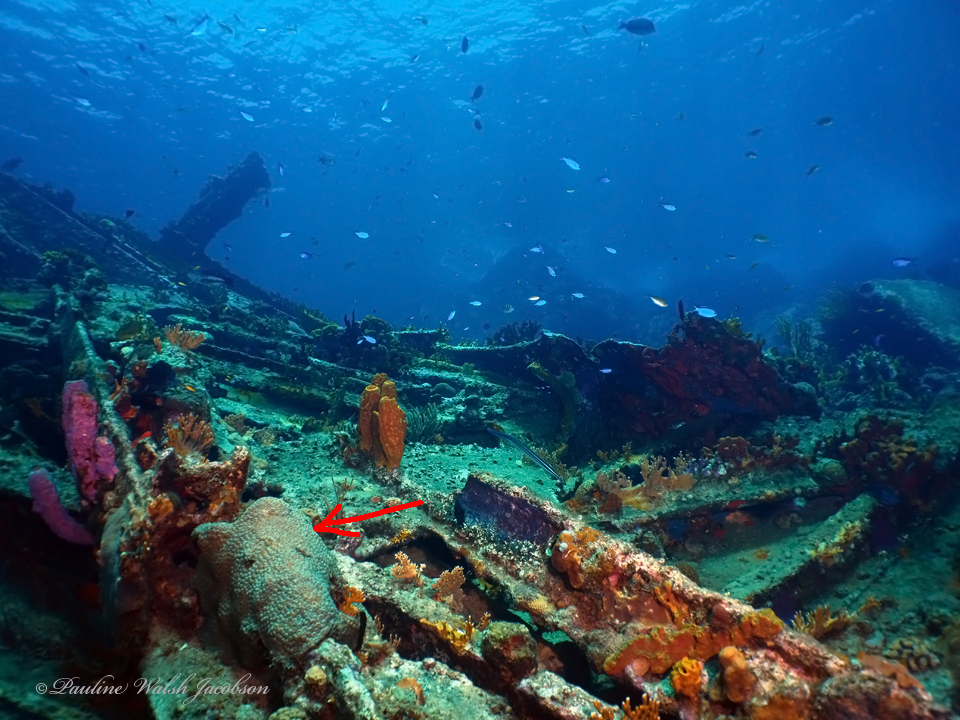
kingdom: Animalia
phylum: Cnidaria
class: Anthozoa
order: Scleractinia
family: Montastraeidae
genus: Montastraea
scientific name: Montastraea cavernosa
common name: Great star coral
